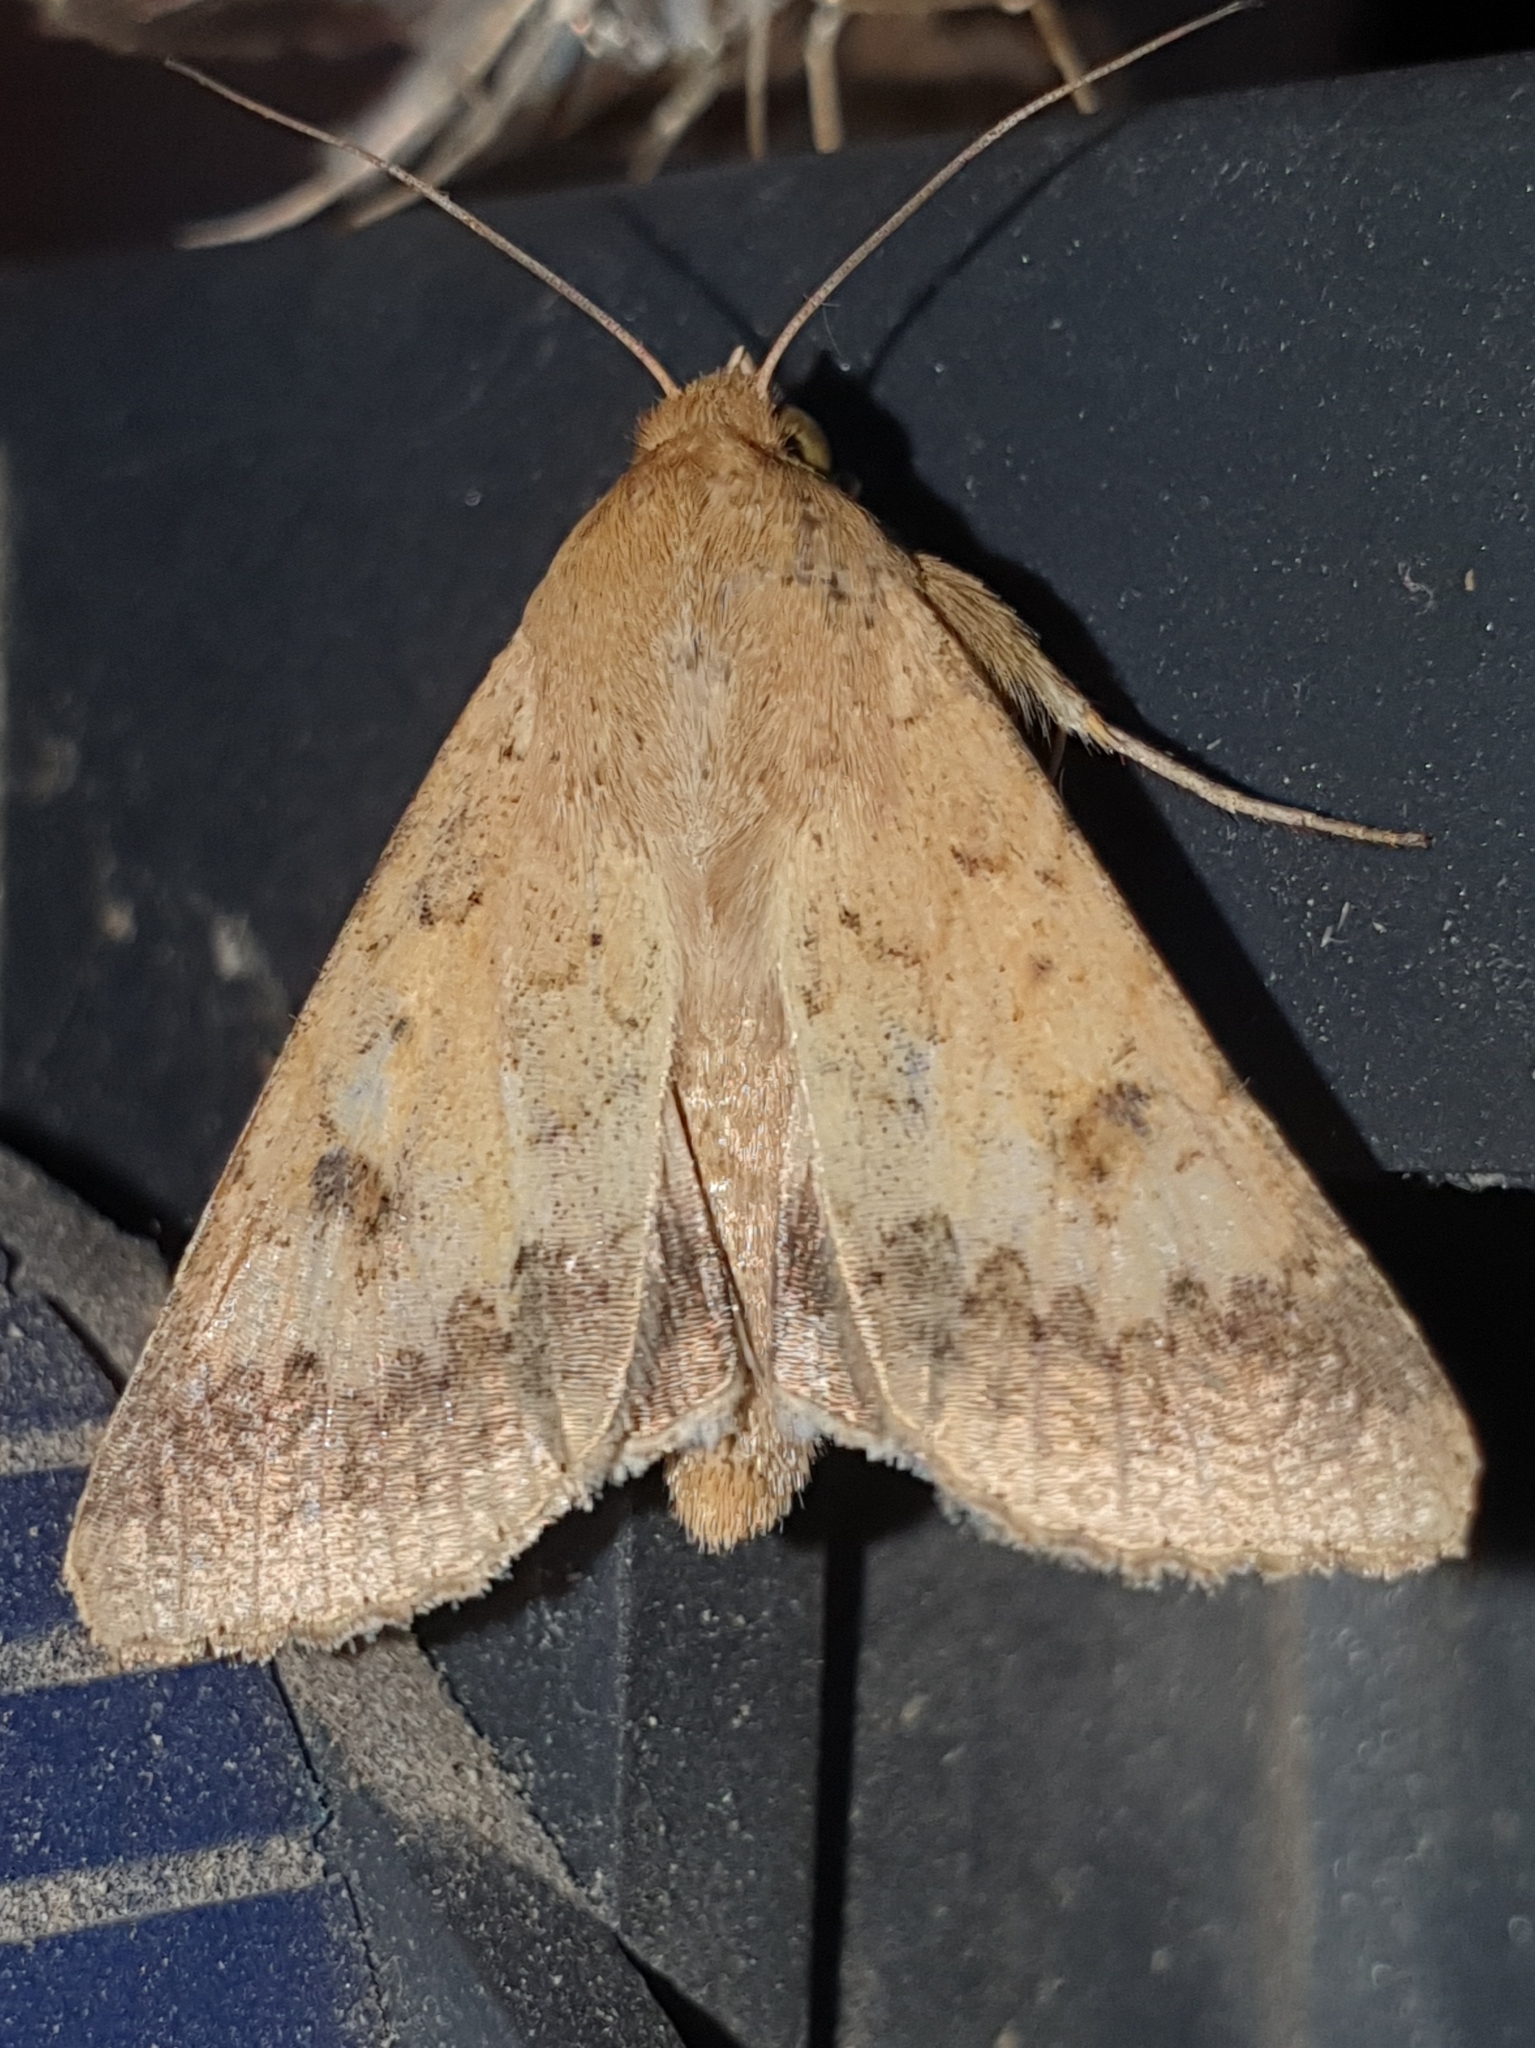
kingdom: Animalia
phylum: Arthropoda
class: Insecta
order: Lepidoptera
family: Noctuidae
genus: Helicoverpa
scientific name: Helicoverpa armigera
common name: Cotton bollworm
